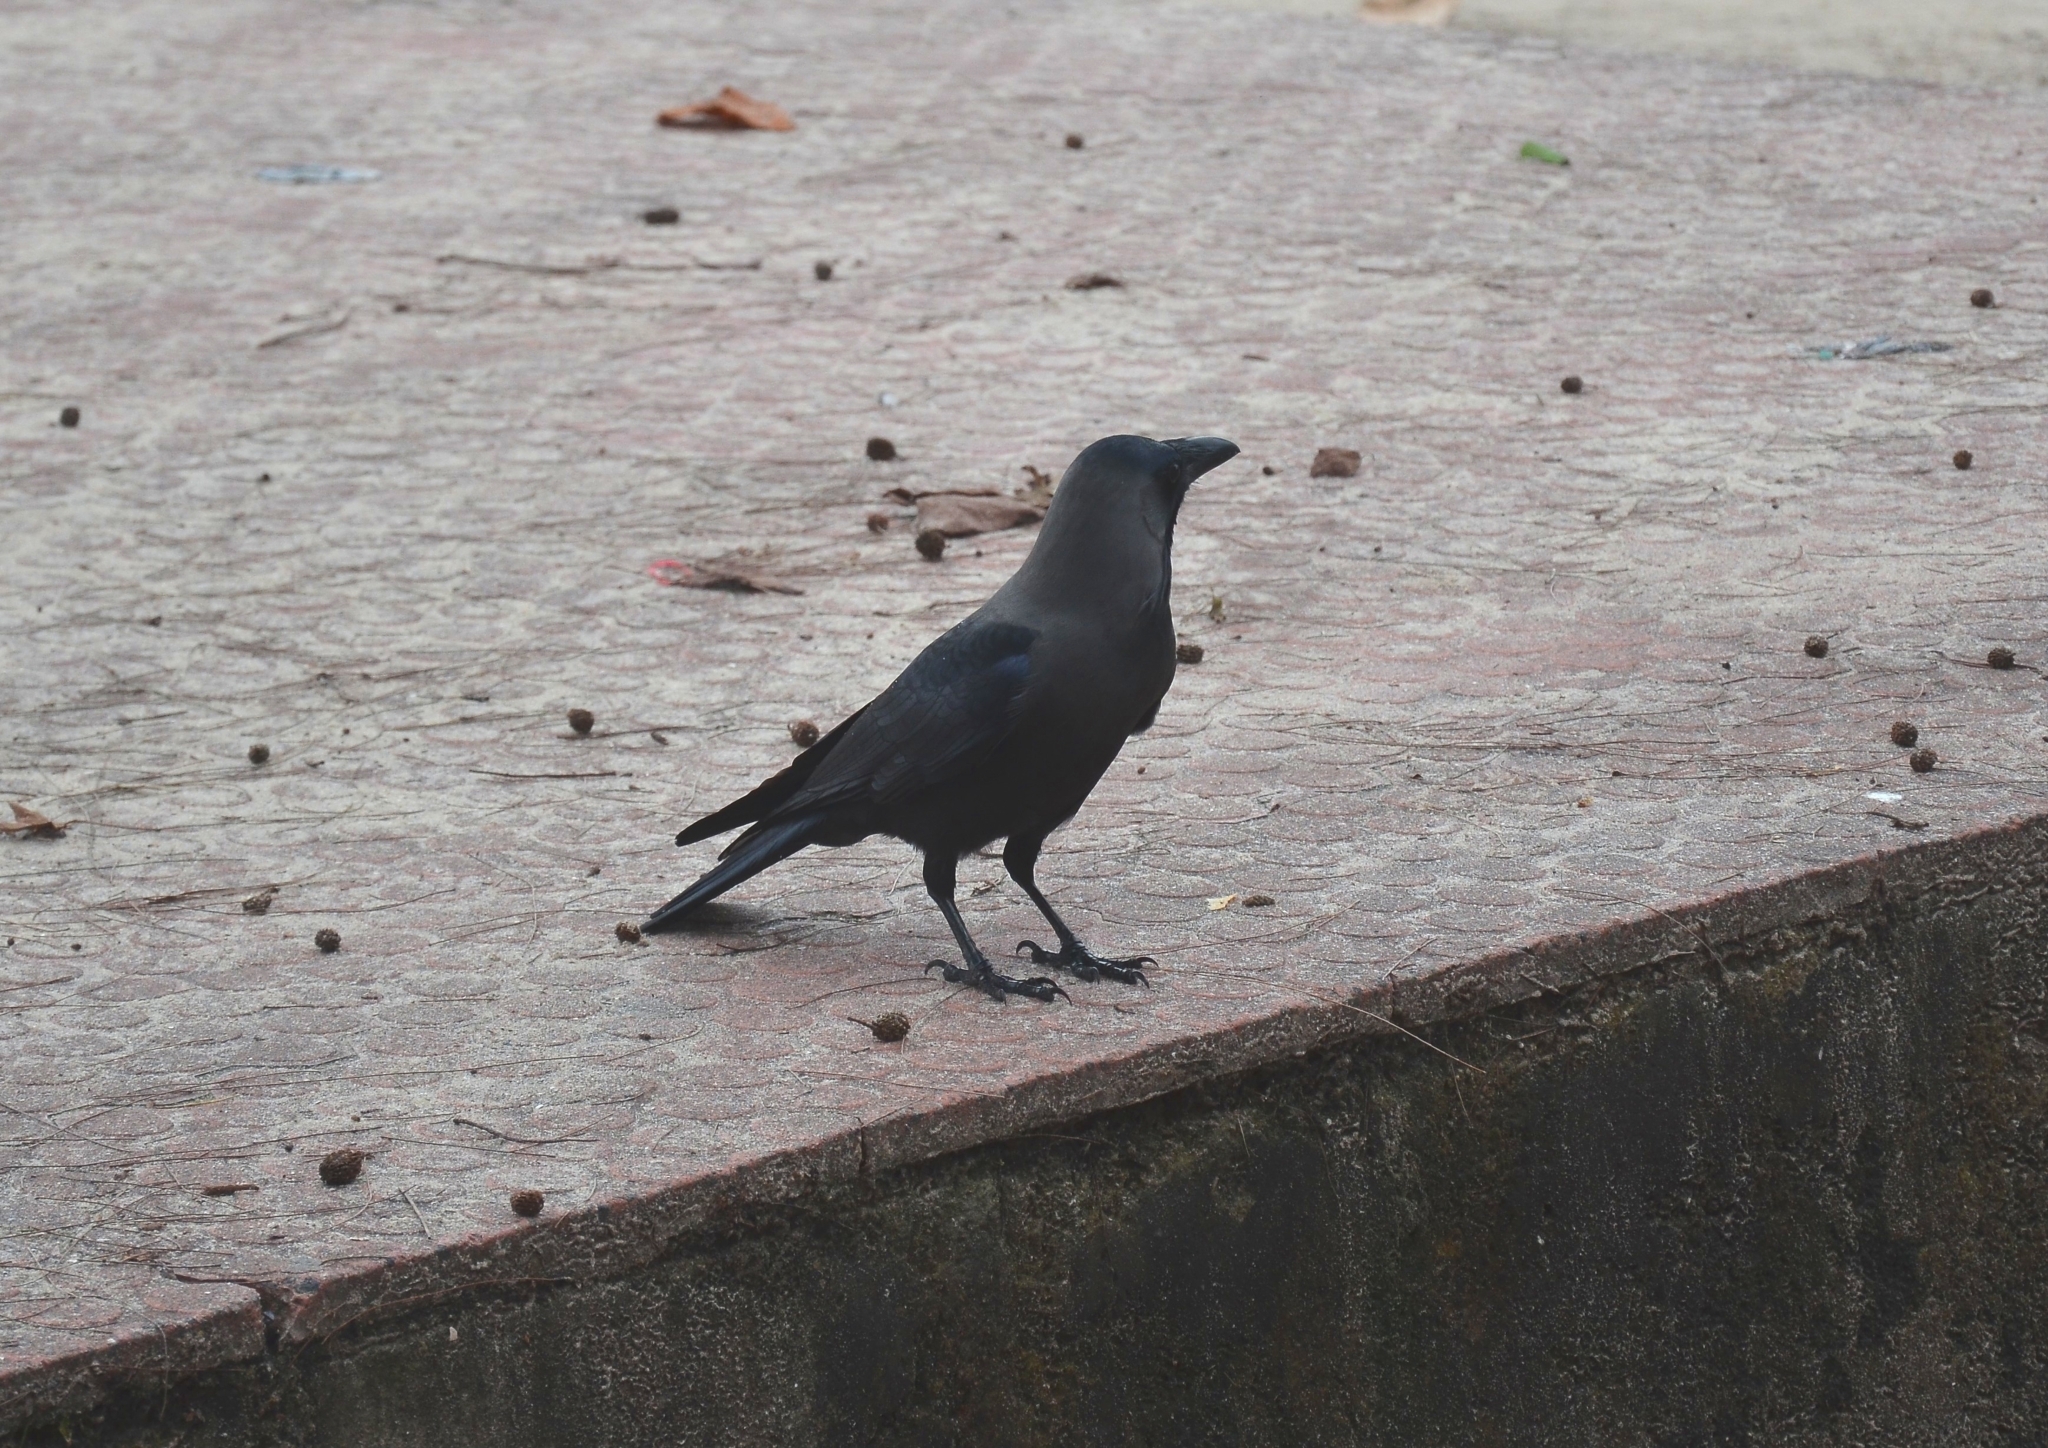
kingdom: Animalia
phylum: Chordata
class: Aves
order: Passeriformes
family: Corvidae
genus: Corvus
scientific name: Corvus splendens
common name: House crow
